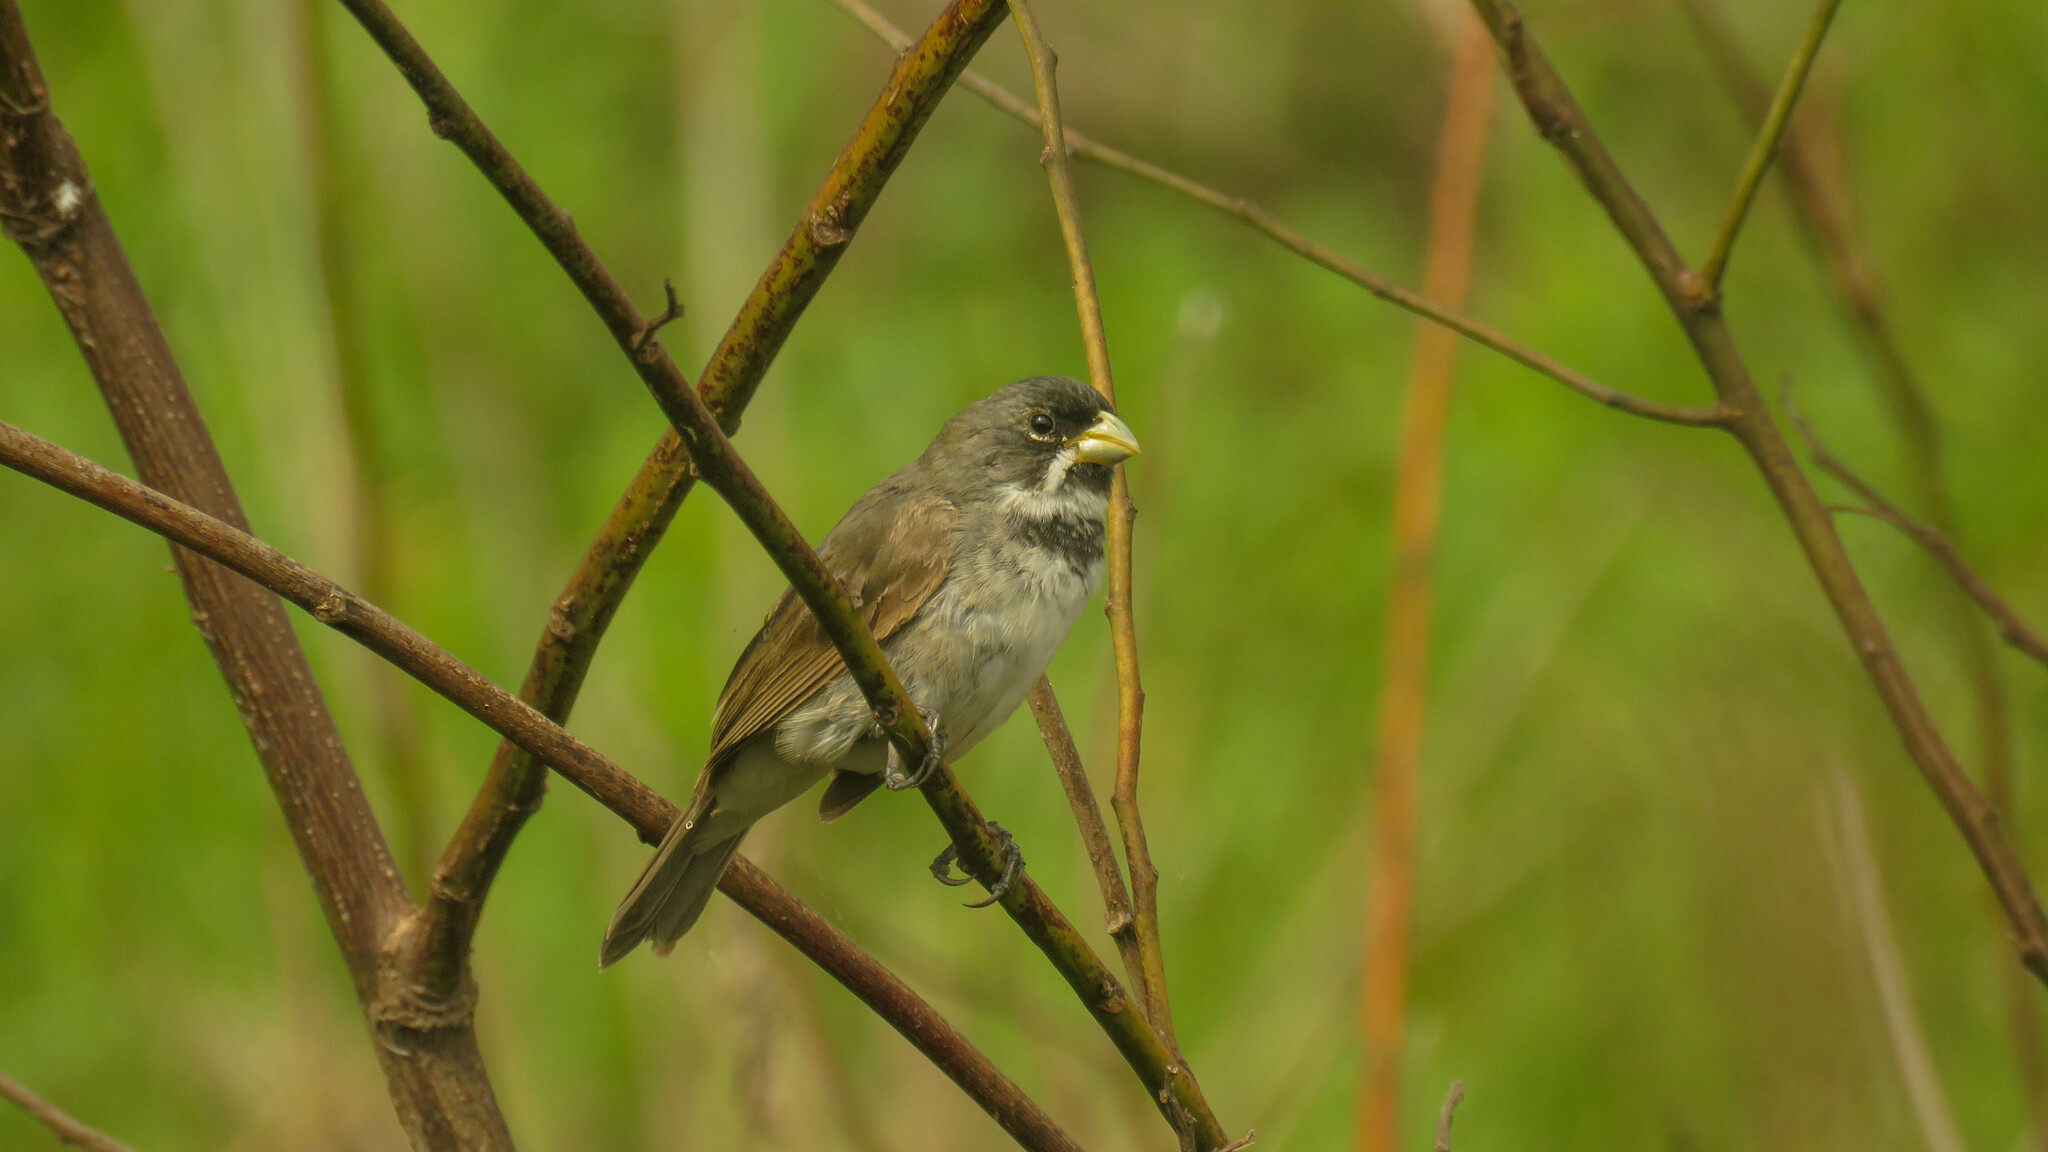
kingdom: Animalia
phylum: Chordata
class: Aves
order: Passeriformes
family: Thraupidae
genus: Sporophila
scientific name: Sporophila caerulescens
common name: Double-collared seedeater
